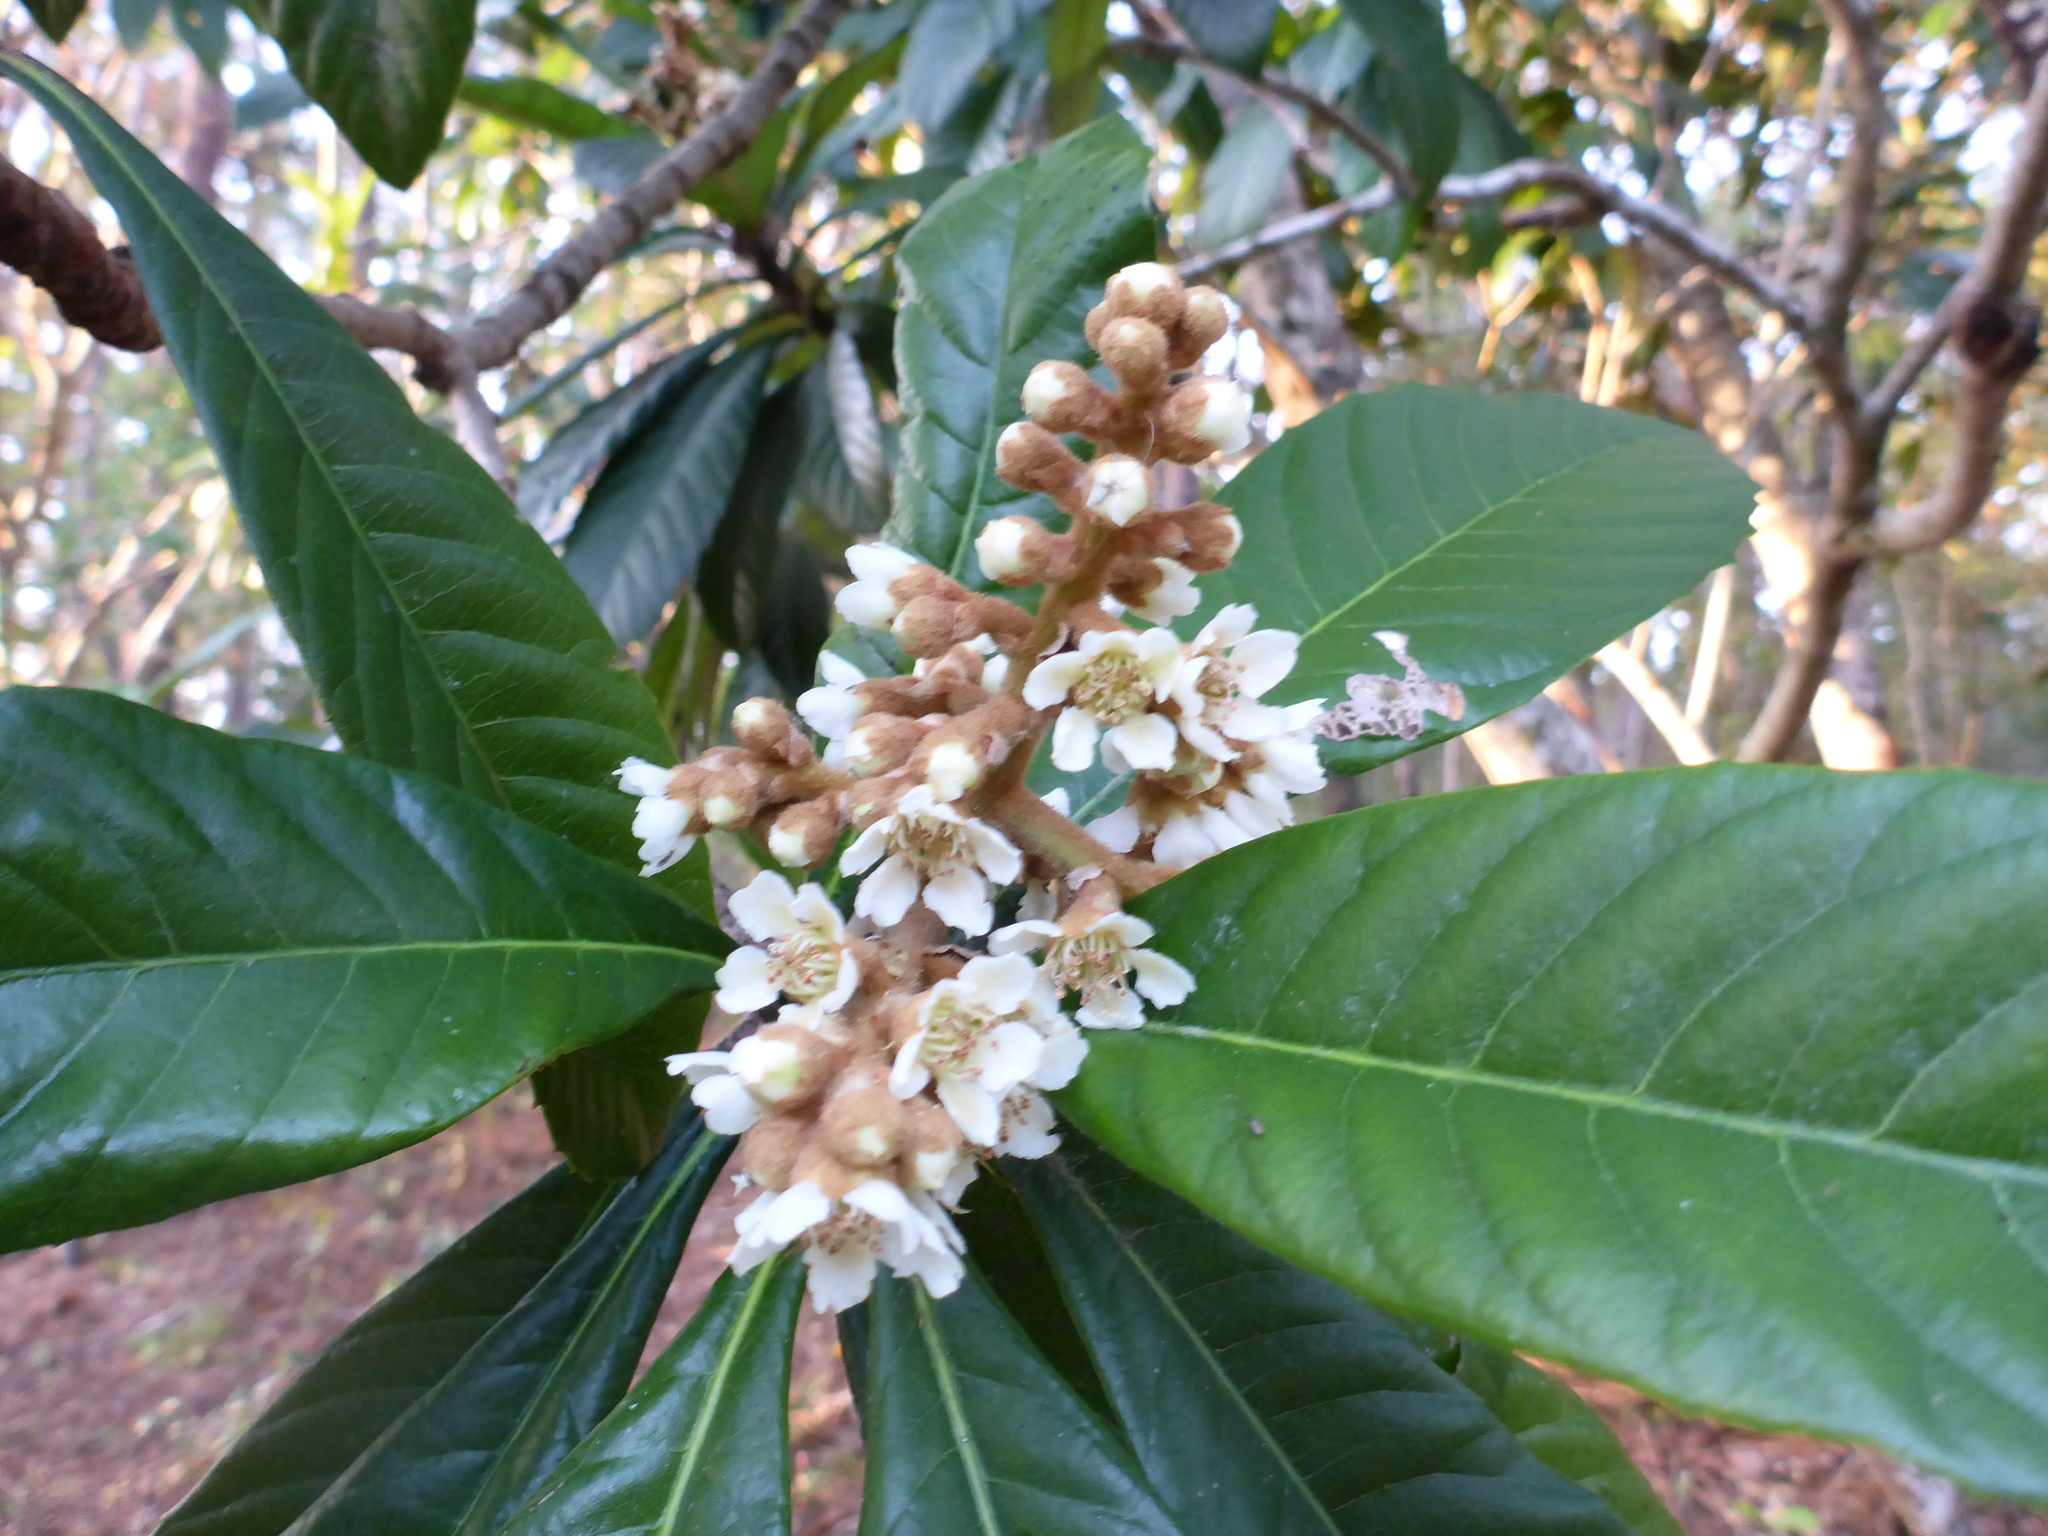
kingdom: Plantae
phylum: Tracheophyta
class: Magnoliopsida
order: Rosales
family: Rosaceae
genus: Rhaphiolepis
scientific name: Rhaphiolepis bibas
